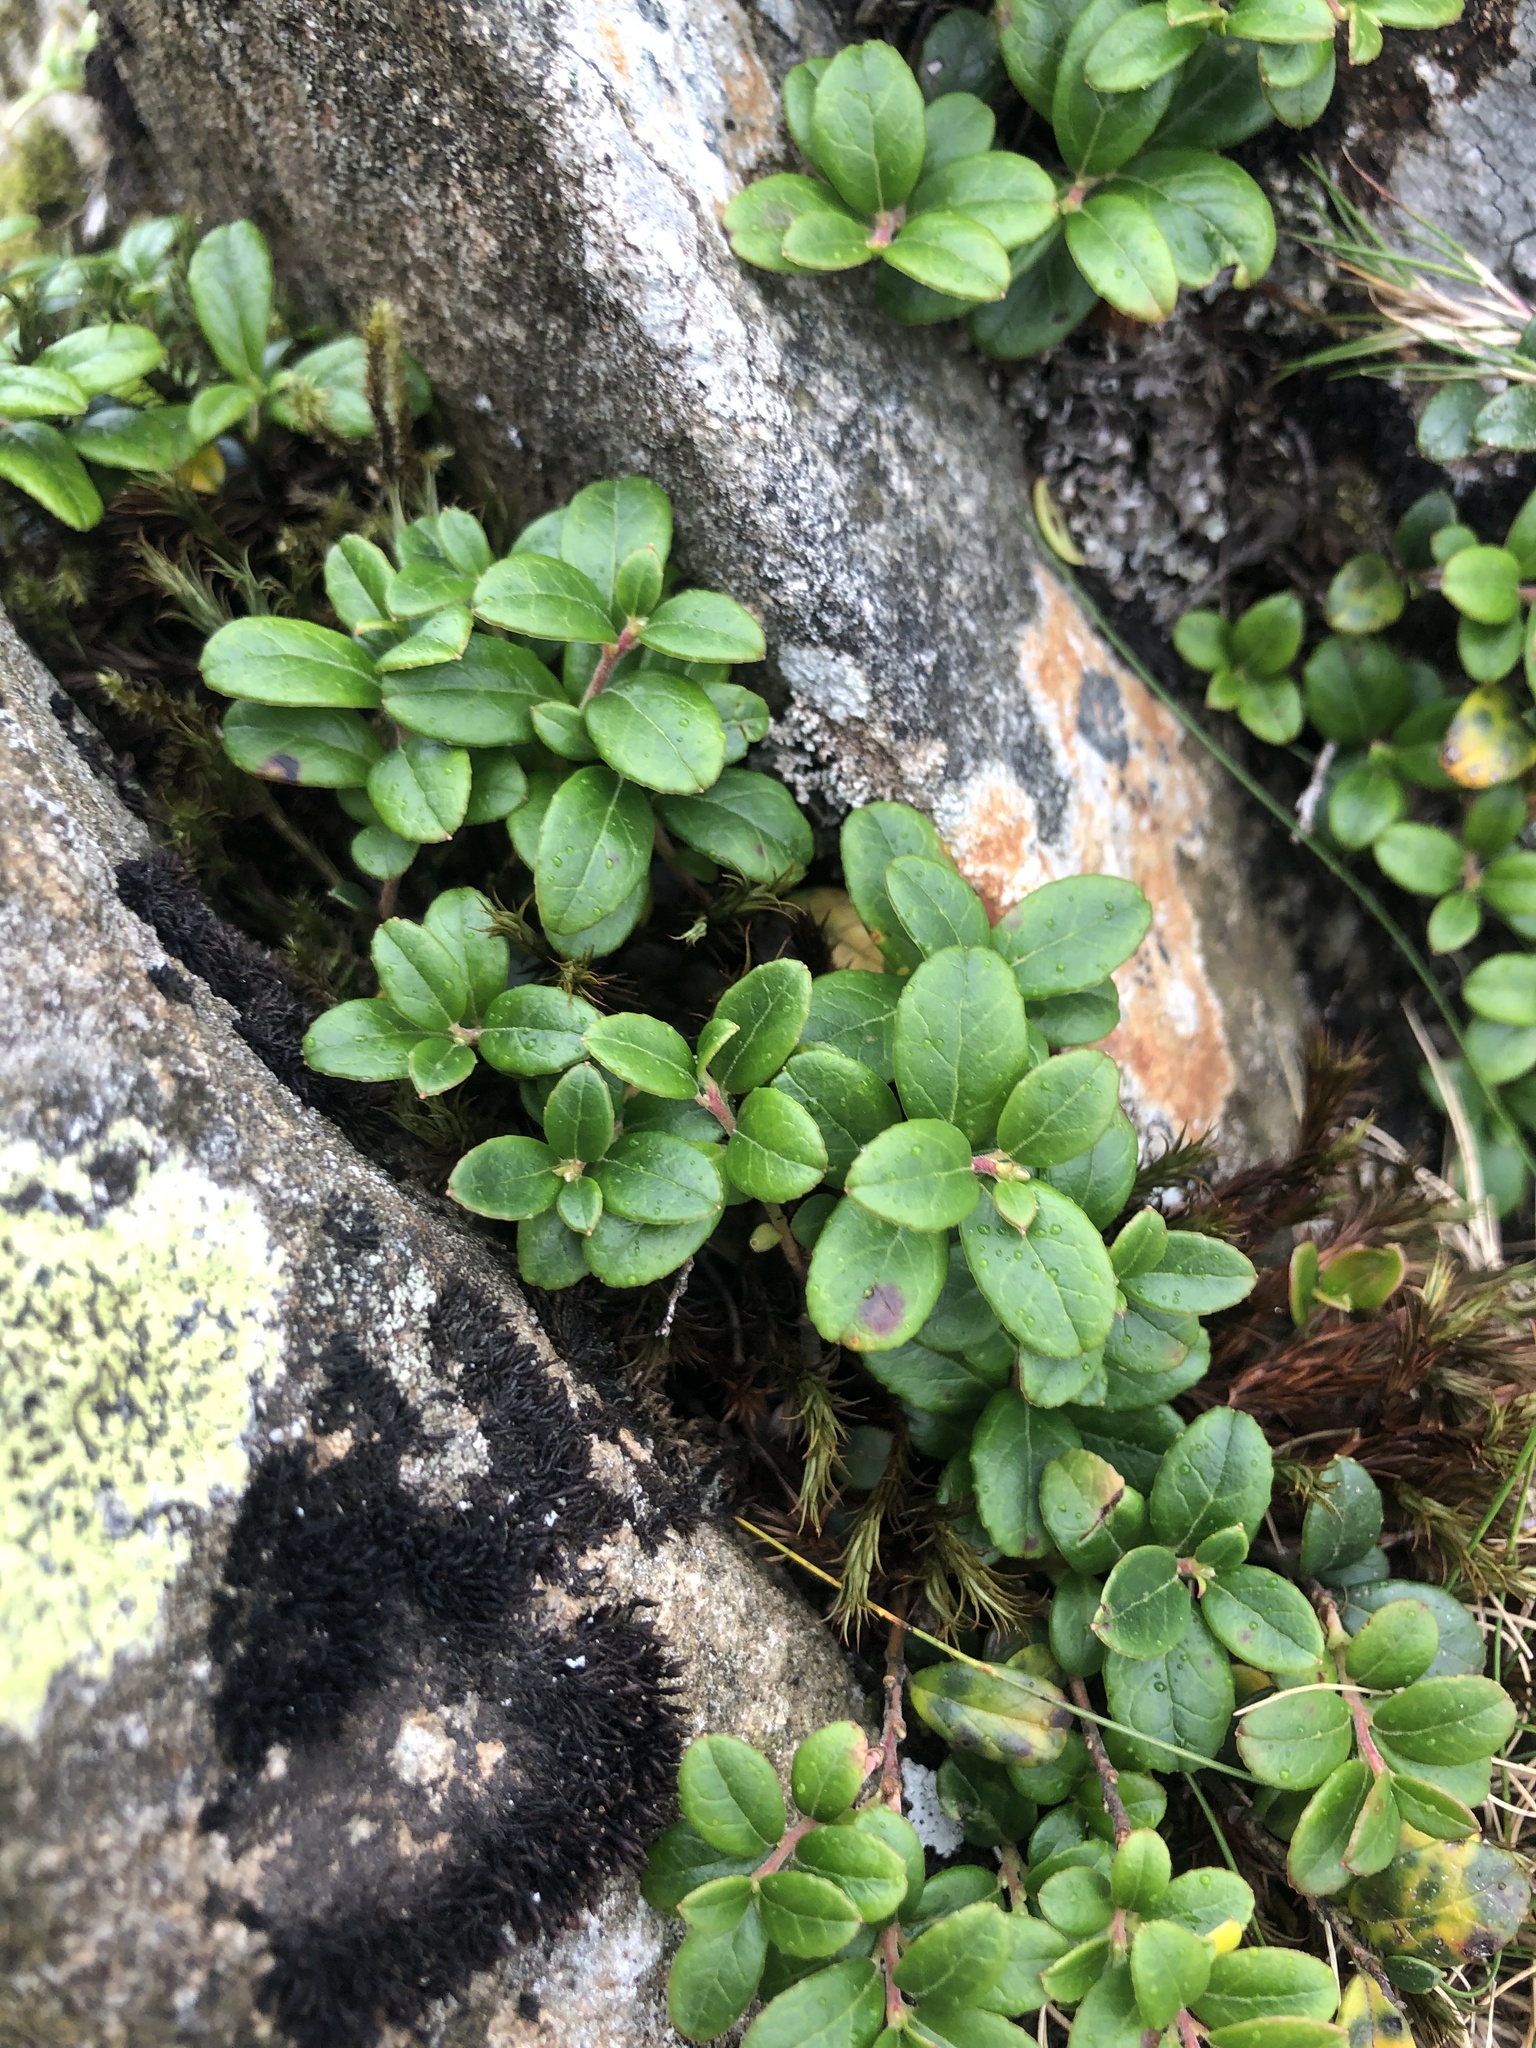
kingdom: Plantae
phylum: Tracheophyta
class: Magnoliopsida
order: Ericales
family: Ericaceae
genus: Vaccinium
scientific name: Vaccinium vitis-idaea
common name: Cowberry
